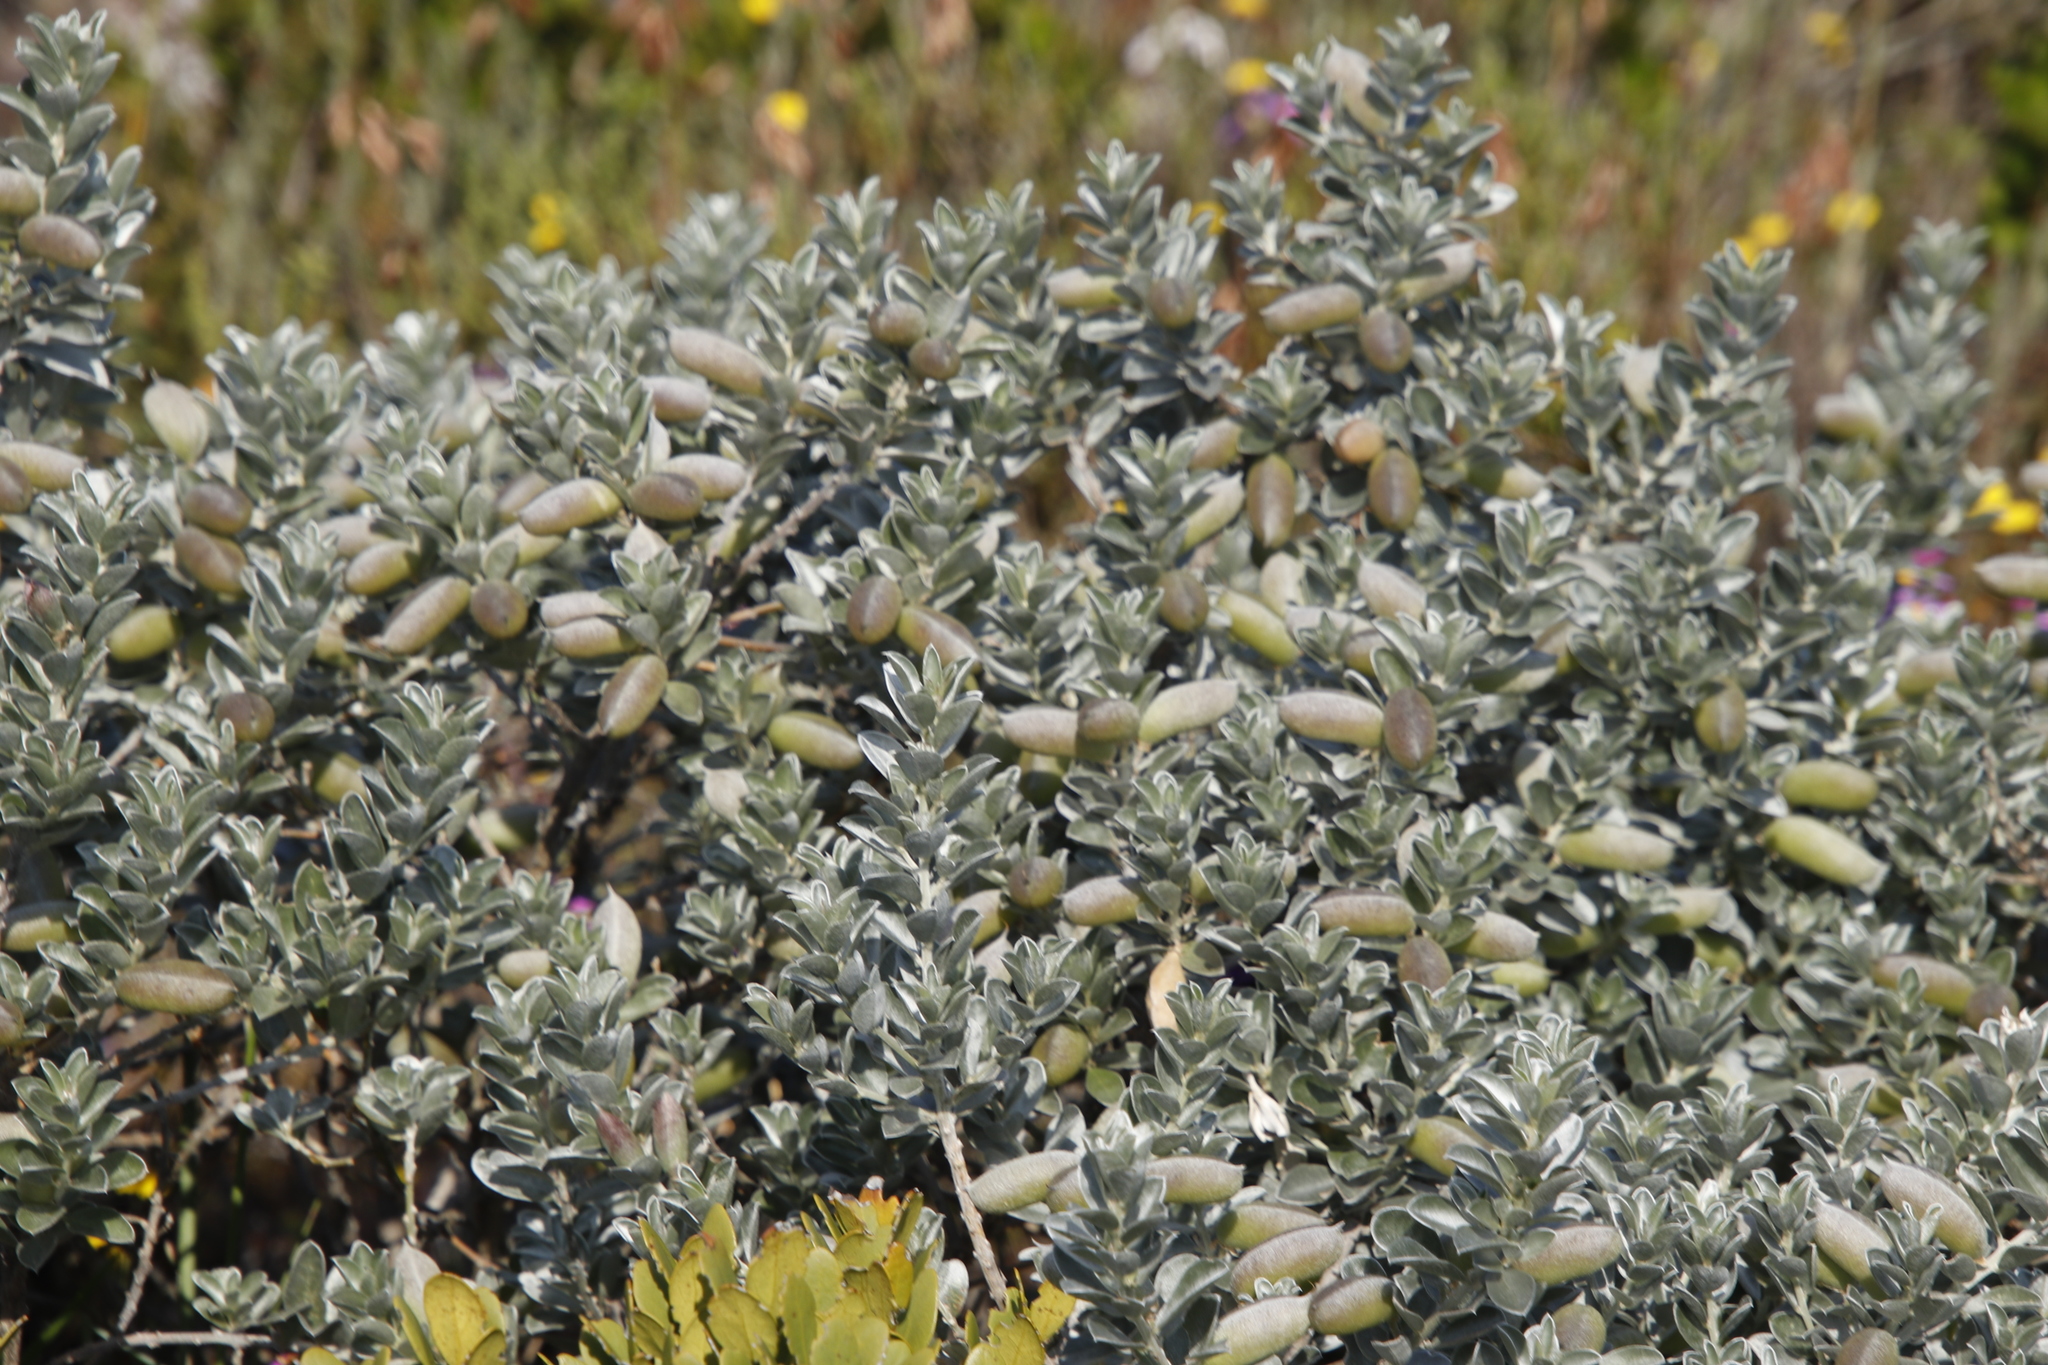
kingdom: Plantae
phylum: Tracheophyta
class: Magnoliopsida
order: Fabales
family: Fabaceae
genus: Podalyria
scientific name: Podalyria sericea
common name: Silver podalyria
